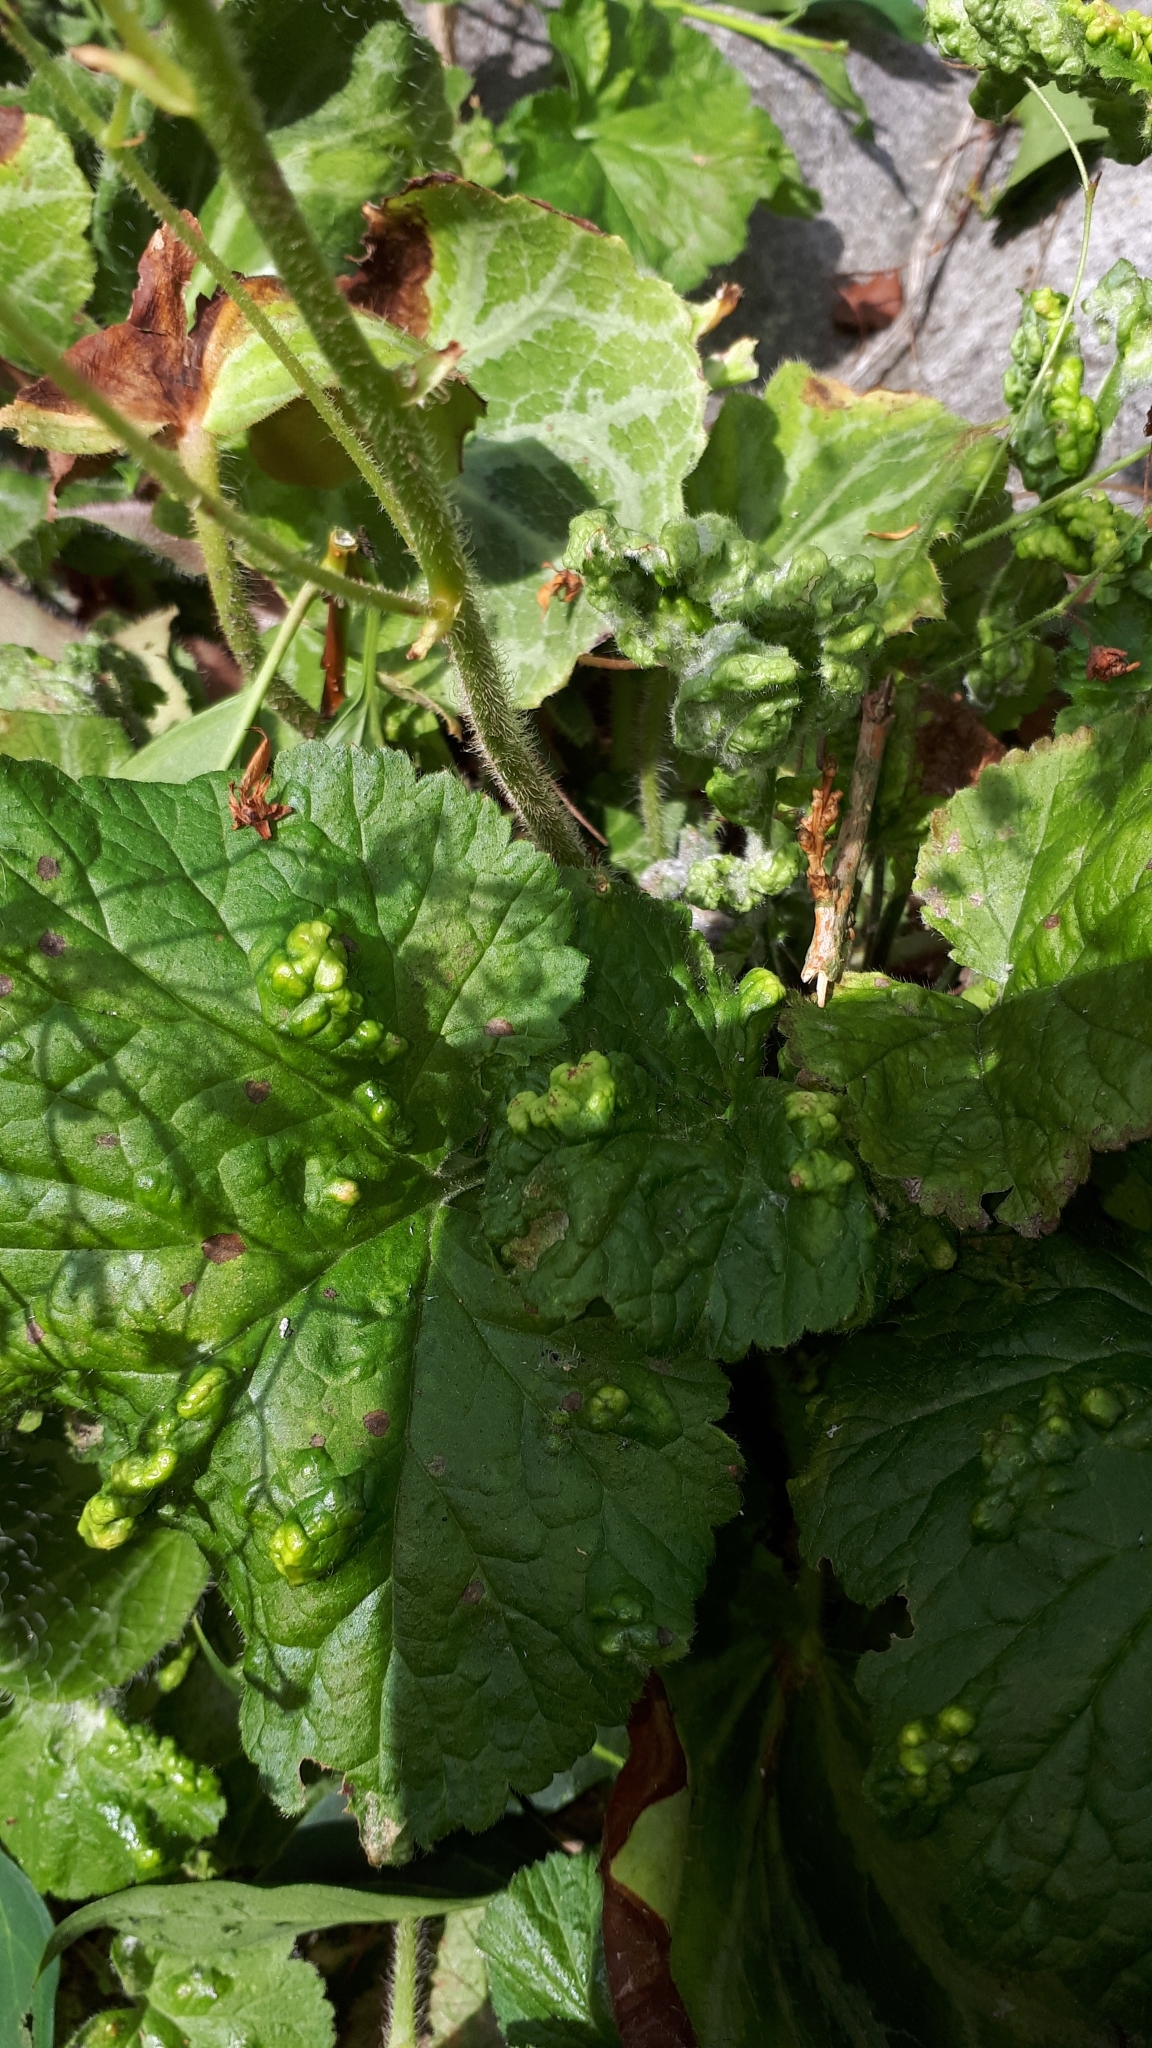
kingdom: Plantae
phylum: Tracheophyta
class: Magnoliopsida
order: Saxifragales
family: Saxifragaceae
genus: Saxifraga
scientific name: Saxifraga stolonifera
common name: Creeping saxifrage
